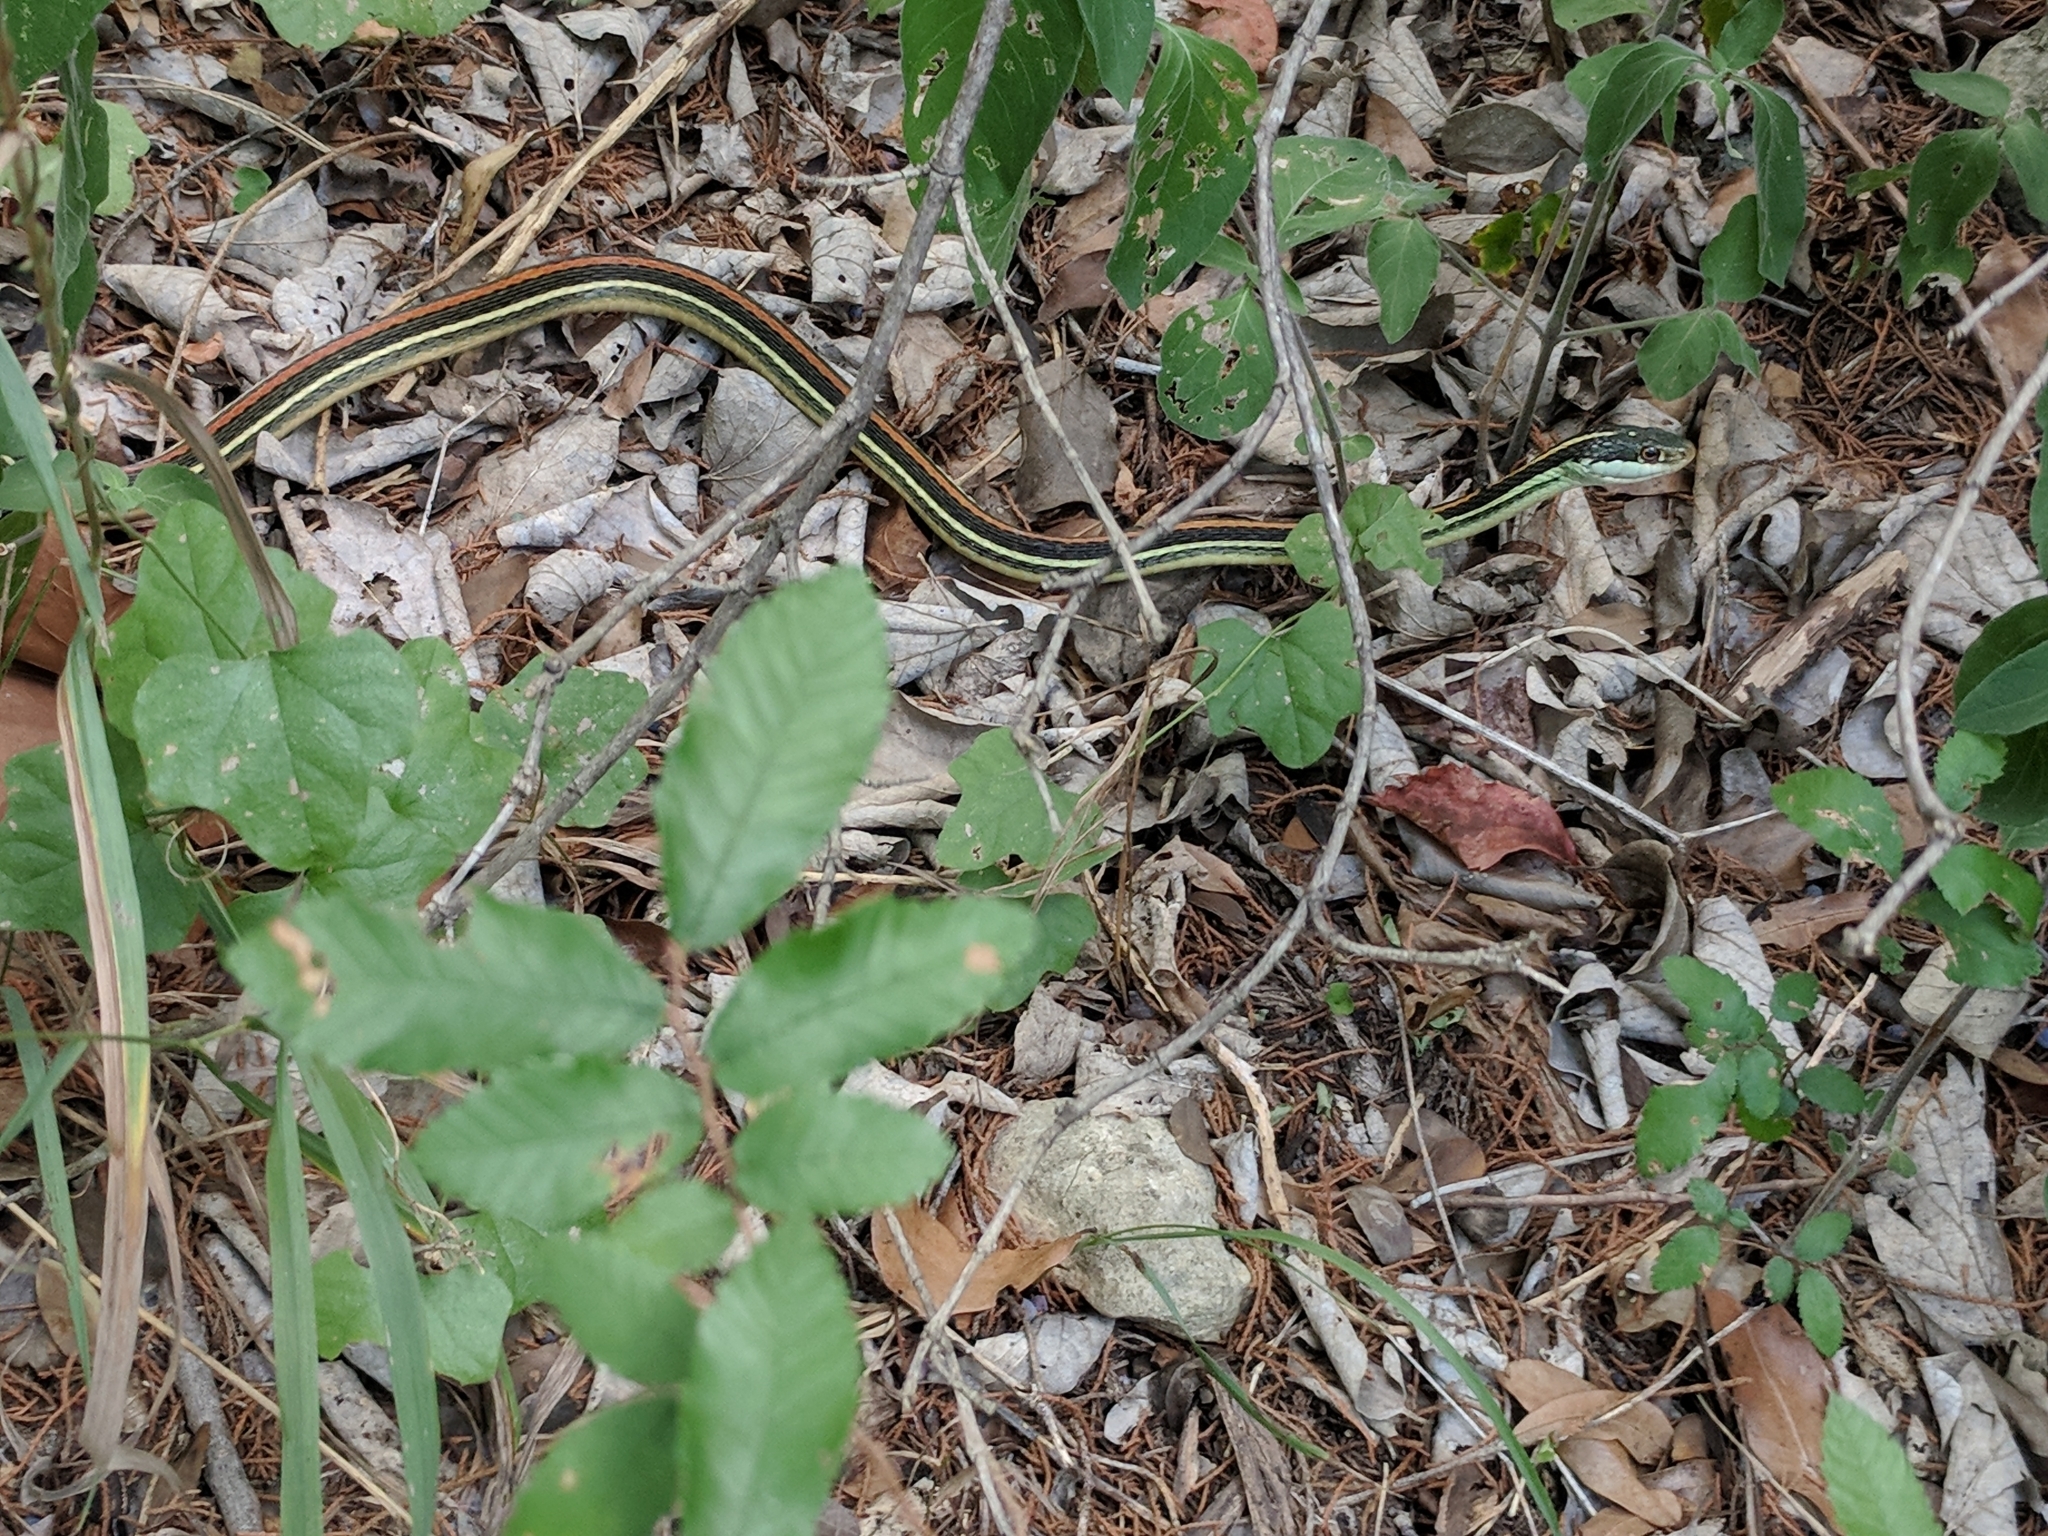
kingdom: Animalia
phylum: Chordata
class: Squamata
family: Colubridae
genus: Thamnophis
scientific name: Thamnophis proximus
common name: Western ribbon snake
